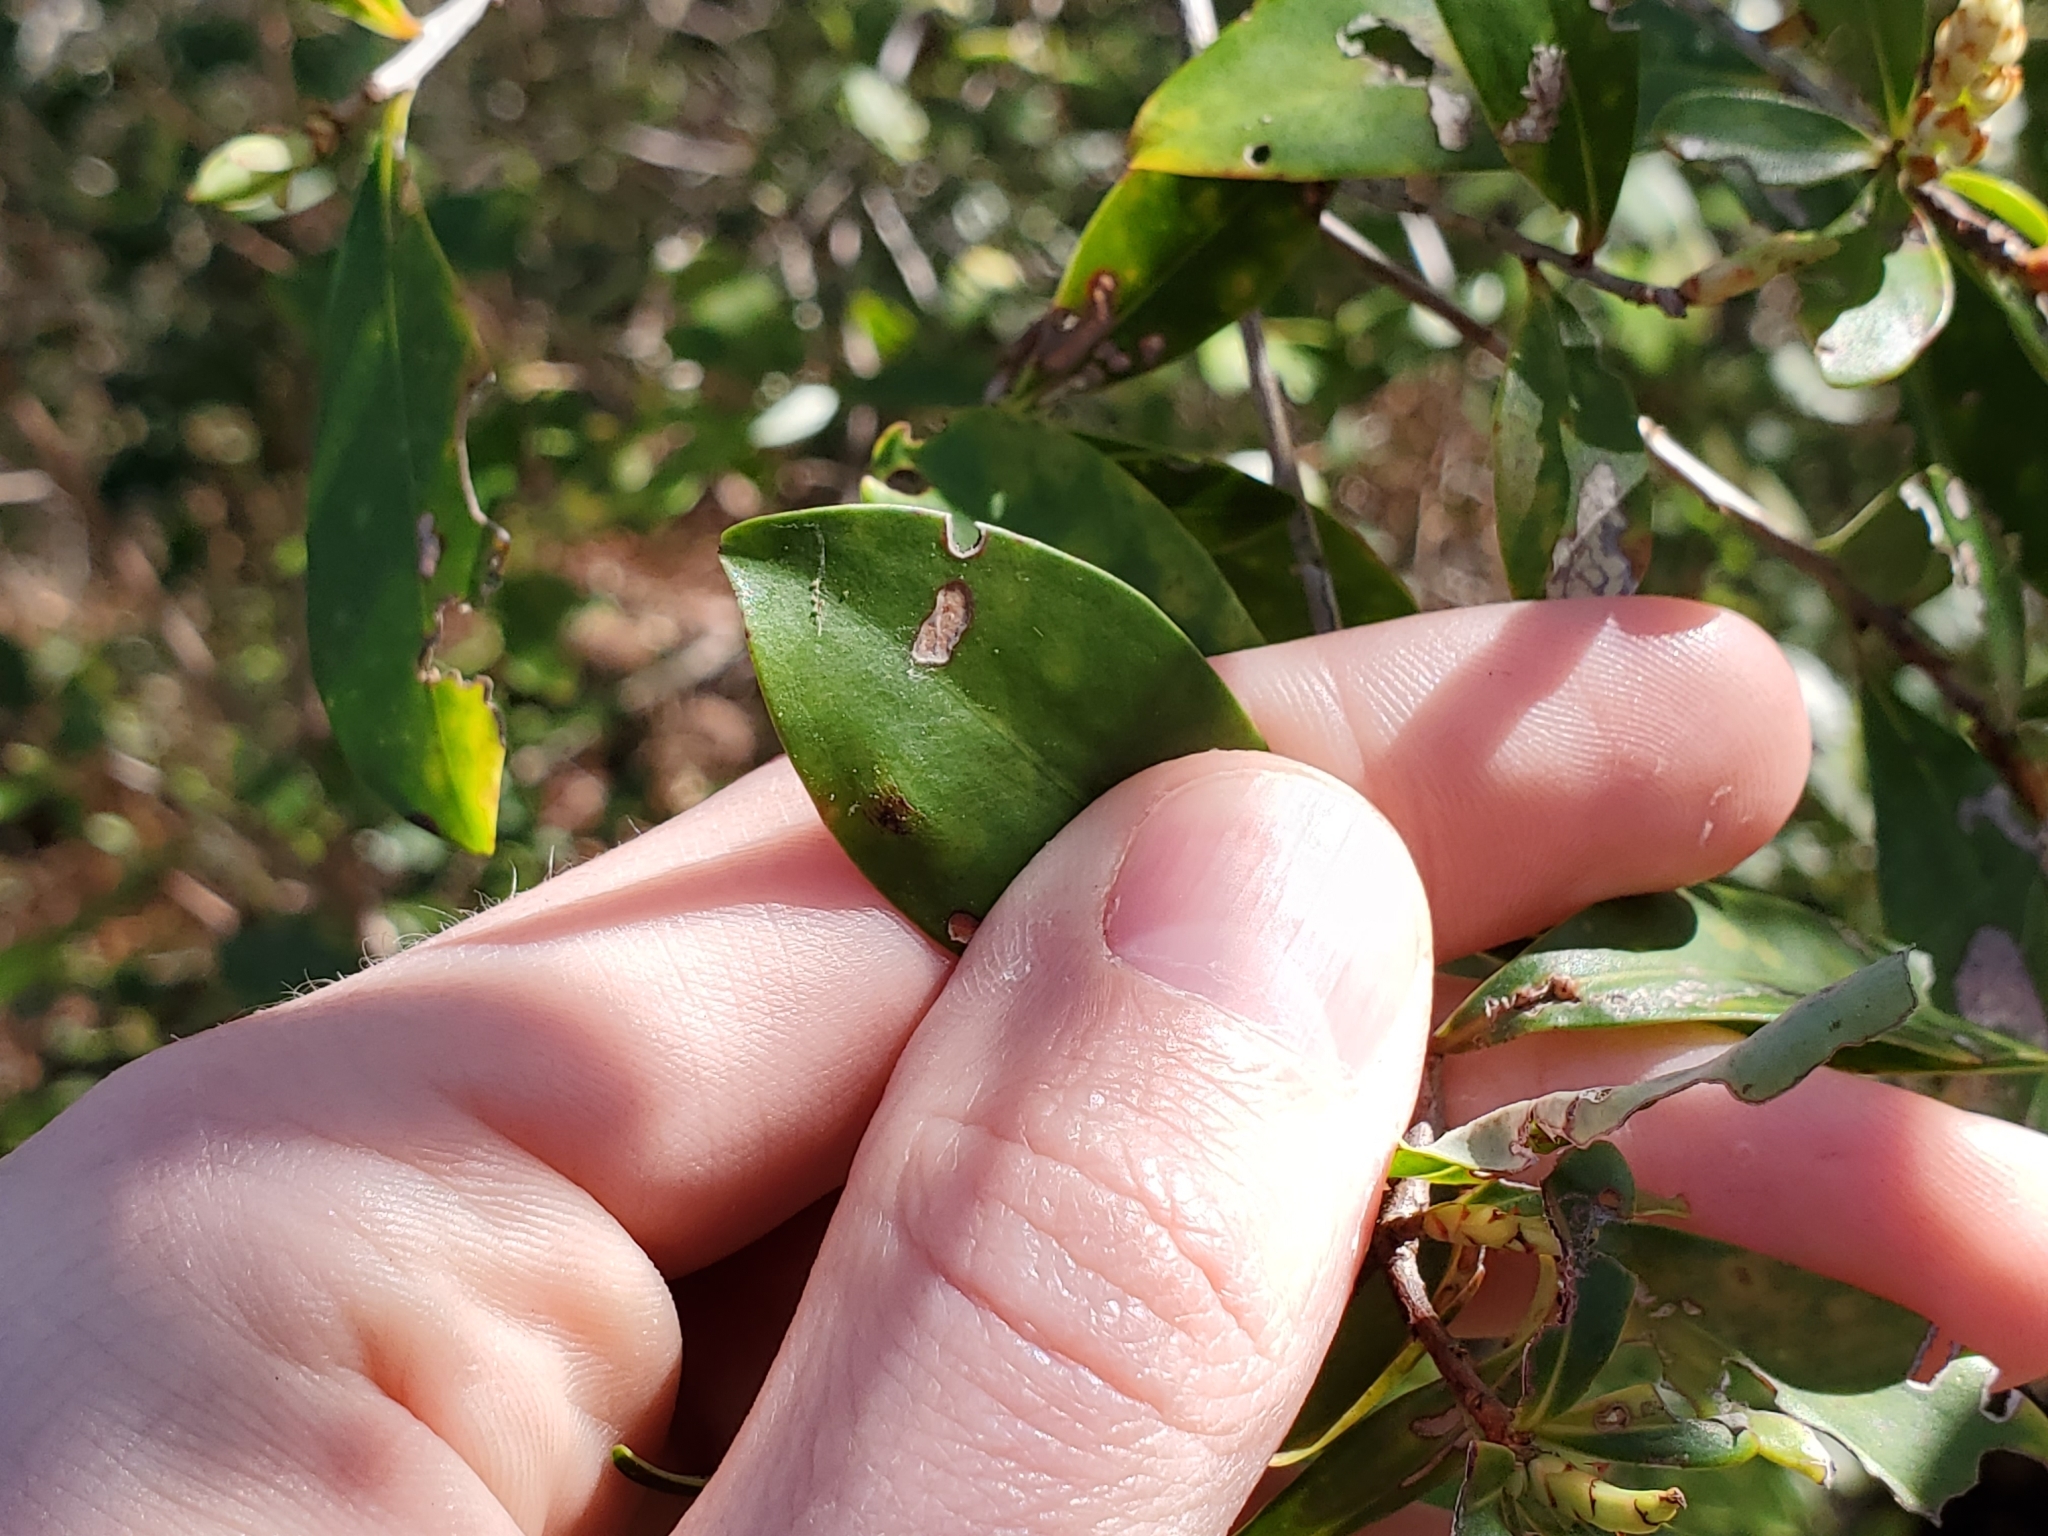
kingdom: Plantae
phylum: Tracheophyta
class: Magnoliopsida
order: Ericales
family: Cyrillaceae
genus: Cliftonia
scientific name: Cliftonia monophylla
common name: Titi
